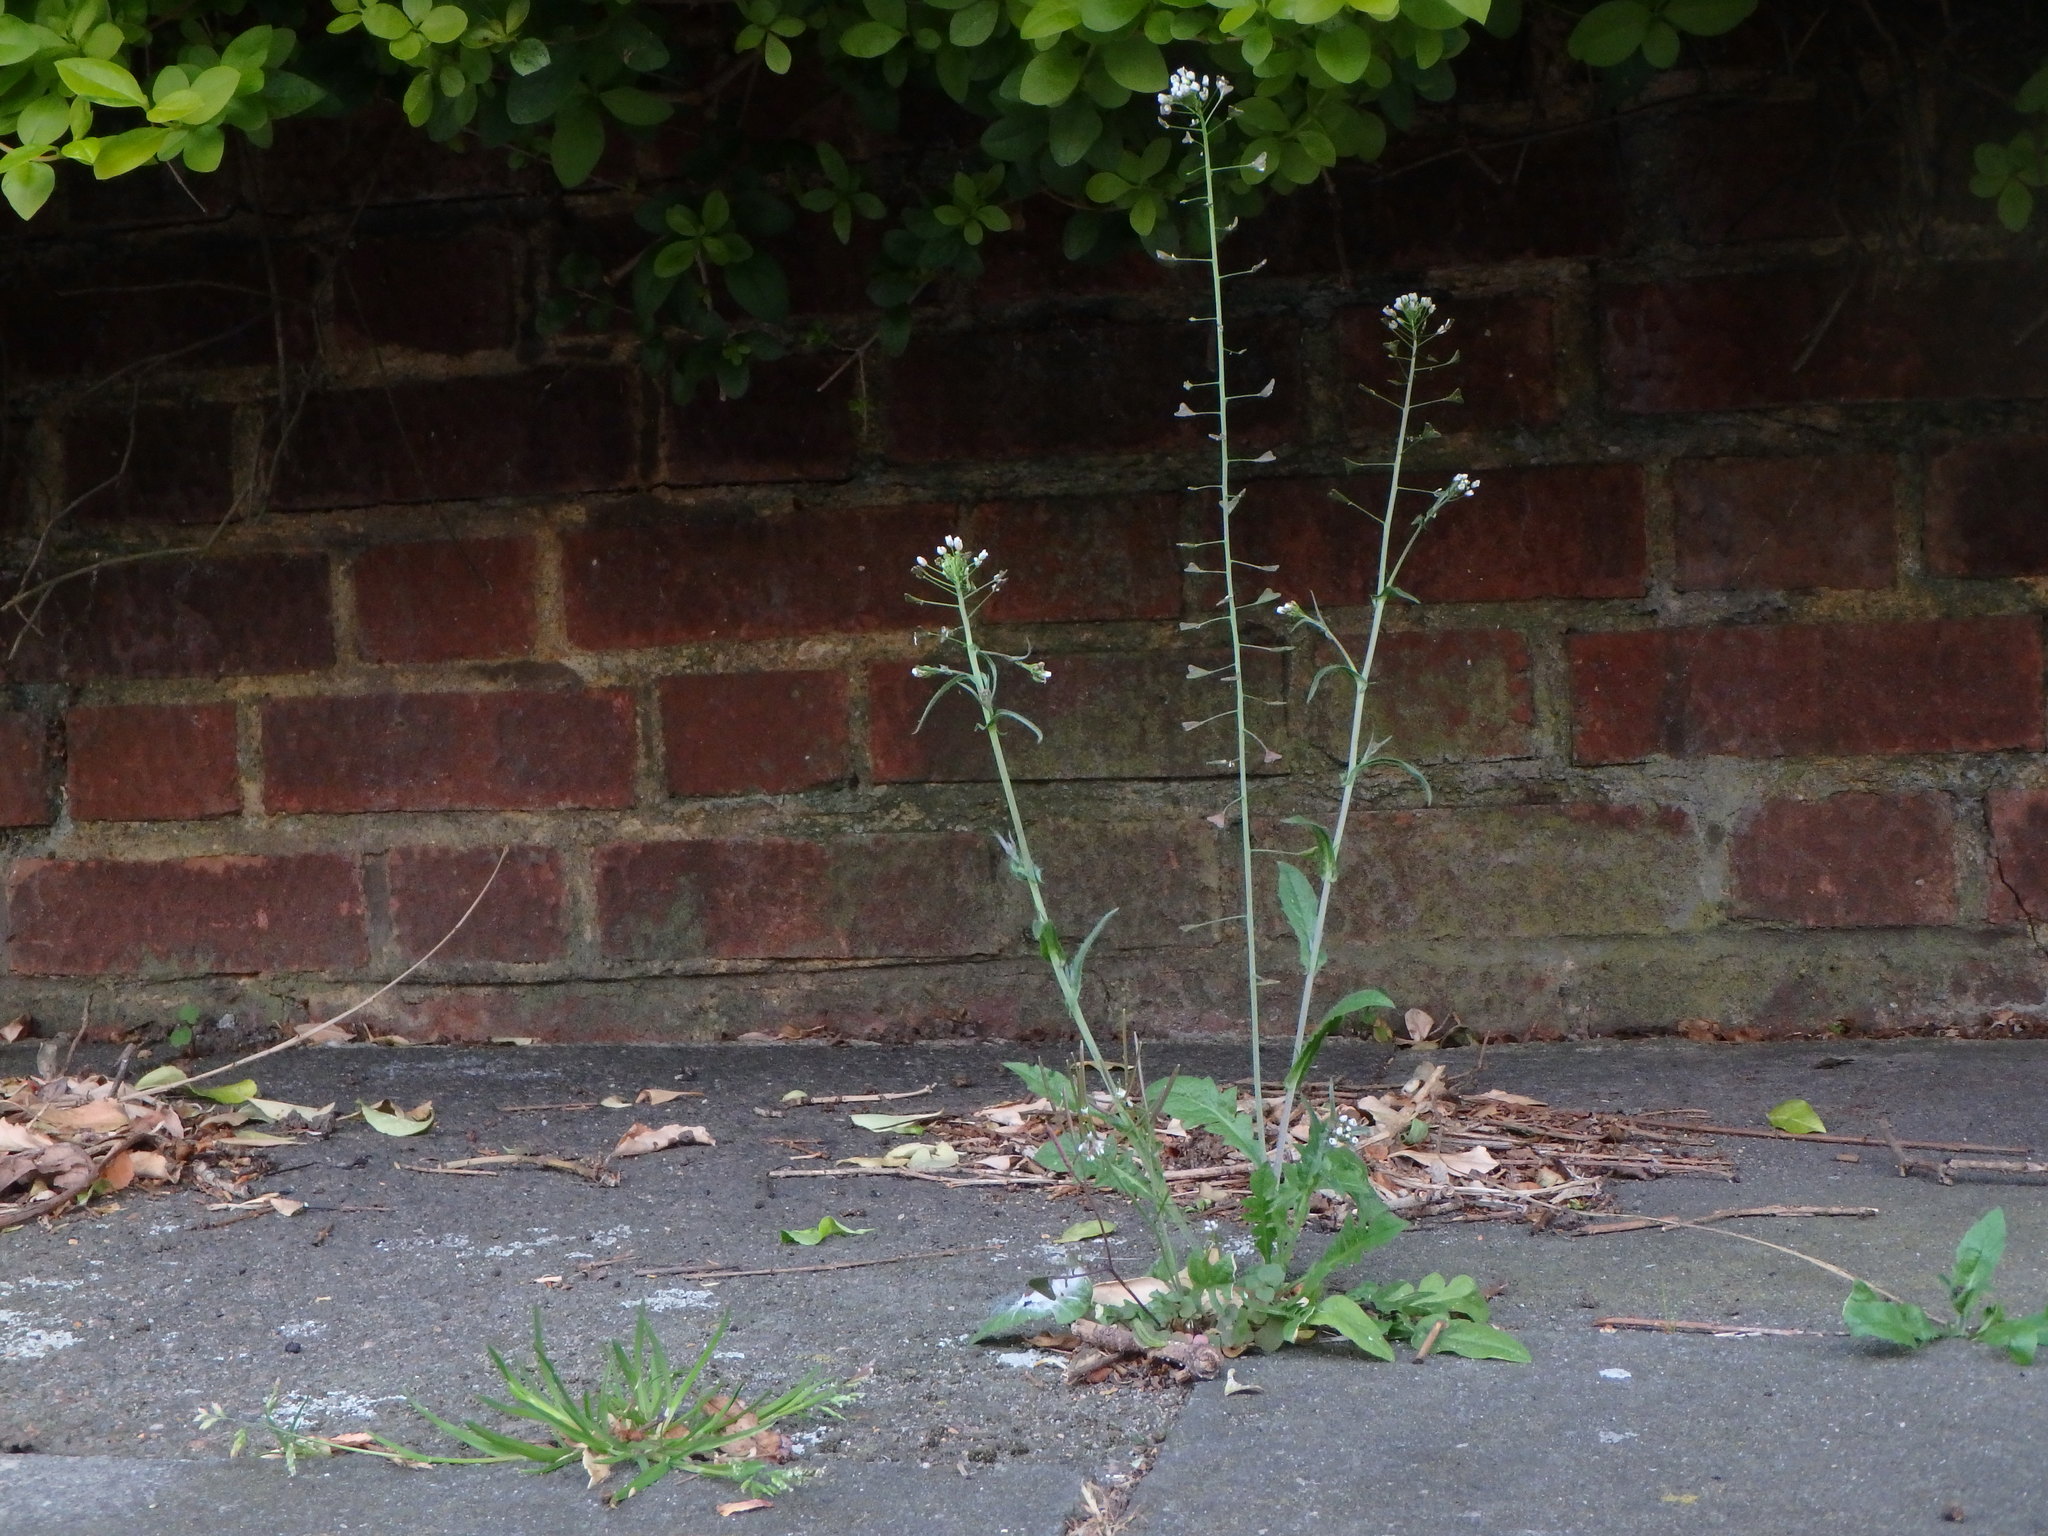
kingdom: Plantae
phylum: Tracheophyta
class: Magnoliopsida
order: Brassicales
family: Brassicaceae
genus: Capsella
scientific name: Capsella bursa-pastoris
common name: Shepherd's purse
